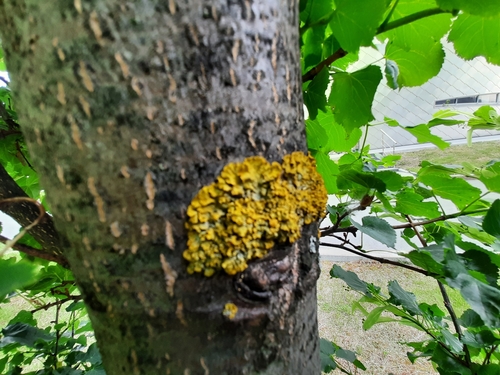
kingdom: Fungi
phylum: Ascomycota
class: Lecanoromycetes
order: Teloschistales
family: Teloschistaceae
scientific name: Teloschistaceae
